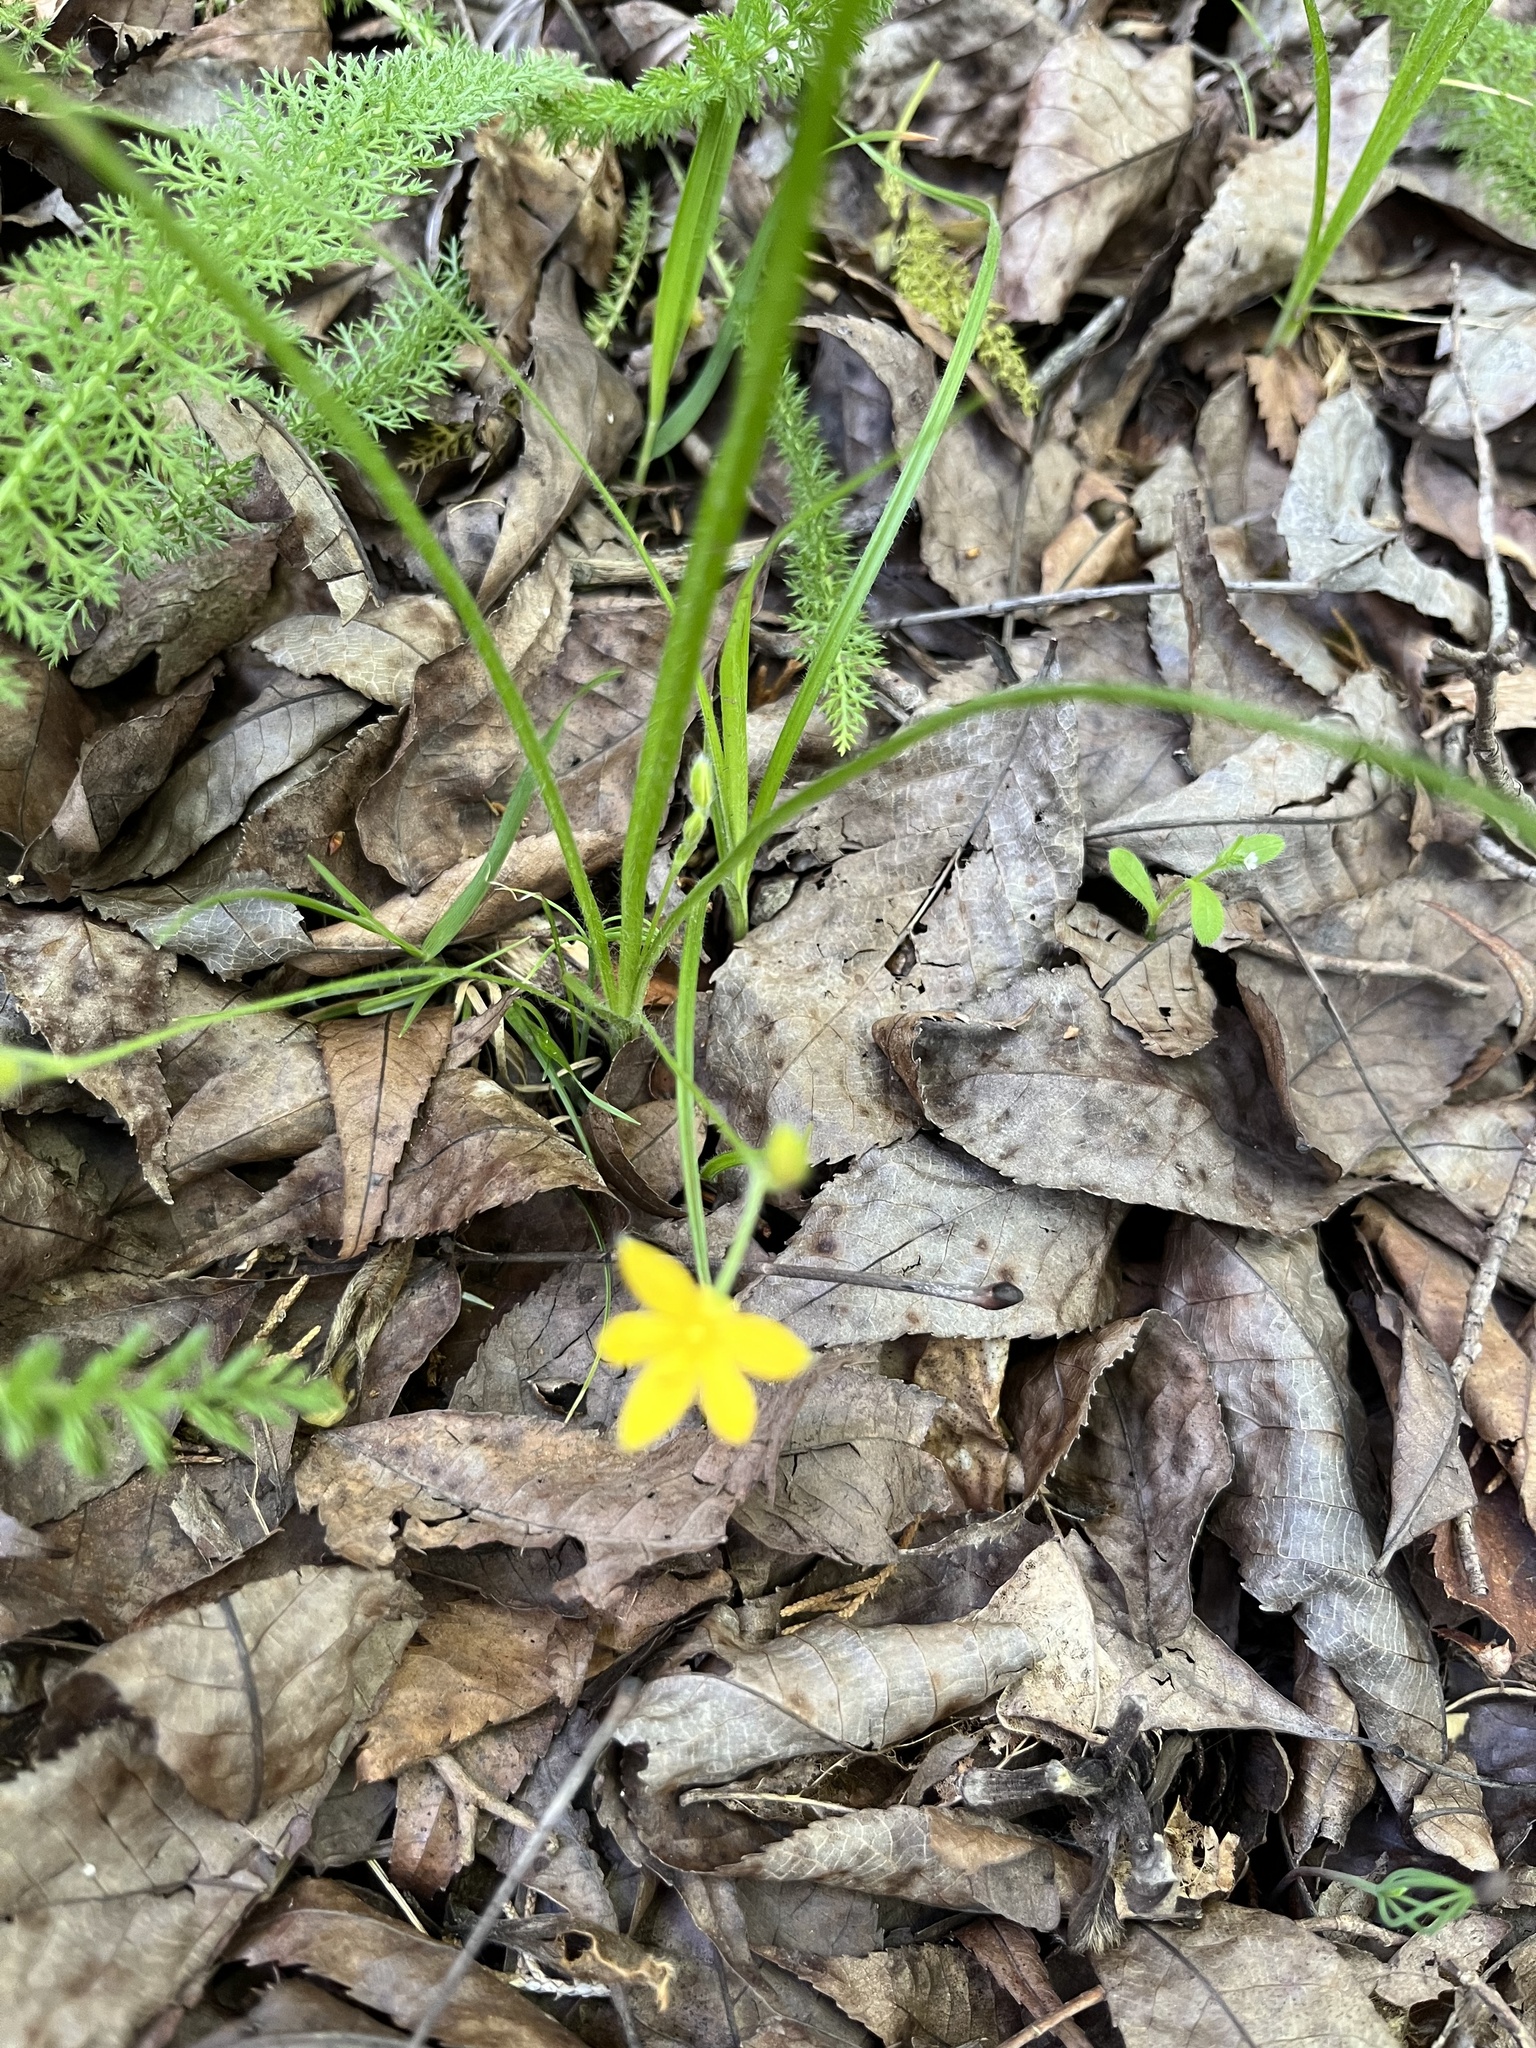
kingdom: Plantae
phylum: Tracheophyta
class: Liliopsida
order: Asparagales
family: Hypoxidaceae
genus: Hypoxis
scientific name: Hypoxis hirsuta
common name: Common goldstar
